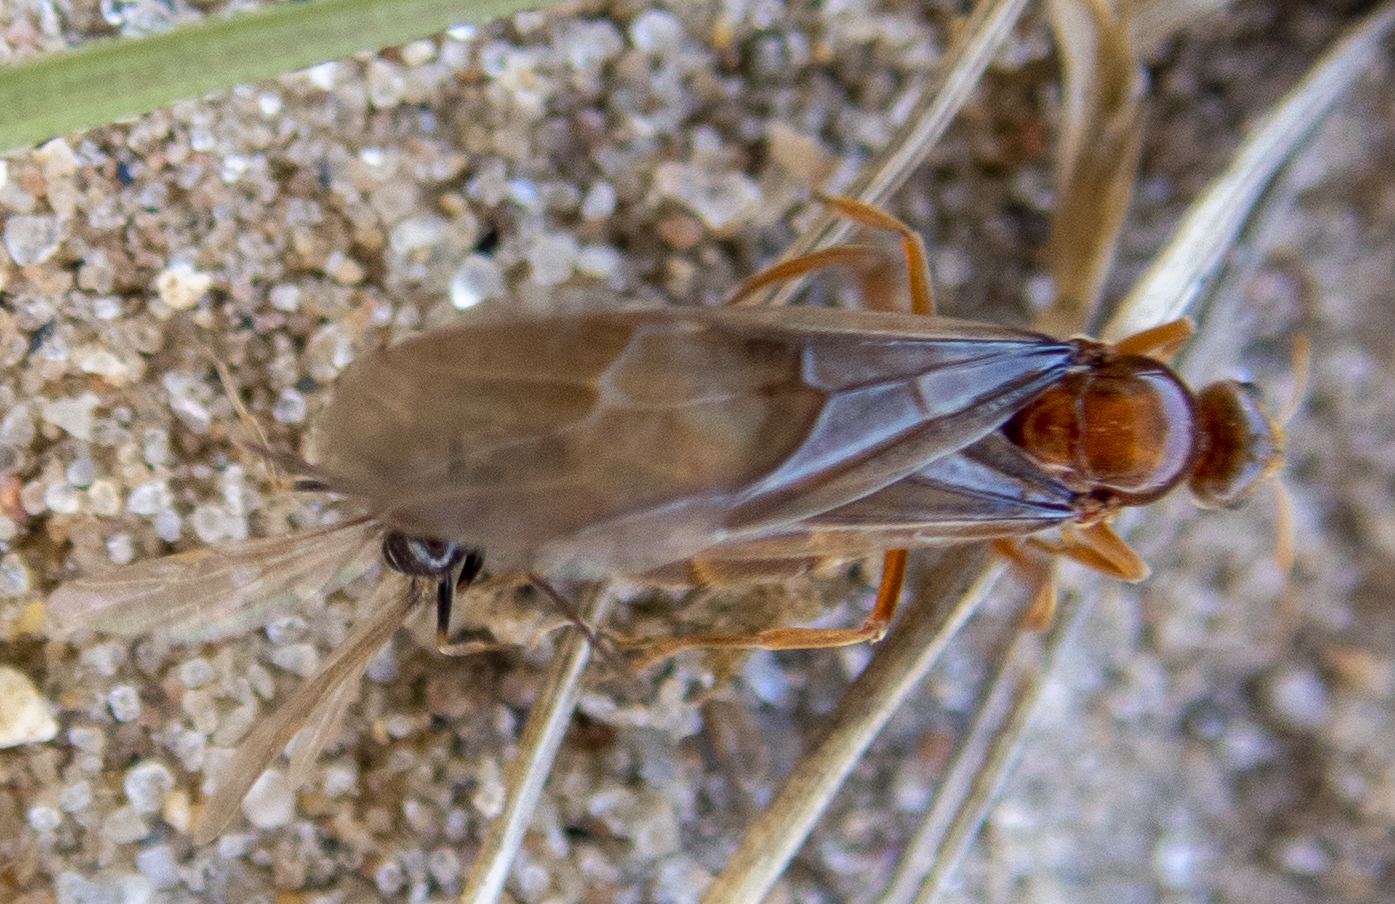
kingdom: Animalia
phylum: Arthropoda
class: Insecta
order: Hymenoptera
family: Formicidae
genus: Prenolepis
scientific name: Prenolepis imparis
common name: Small honey ant
